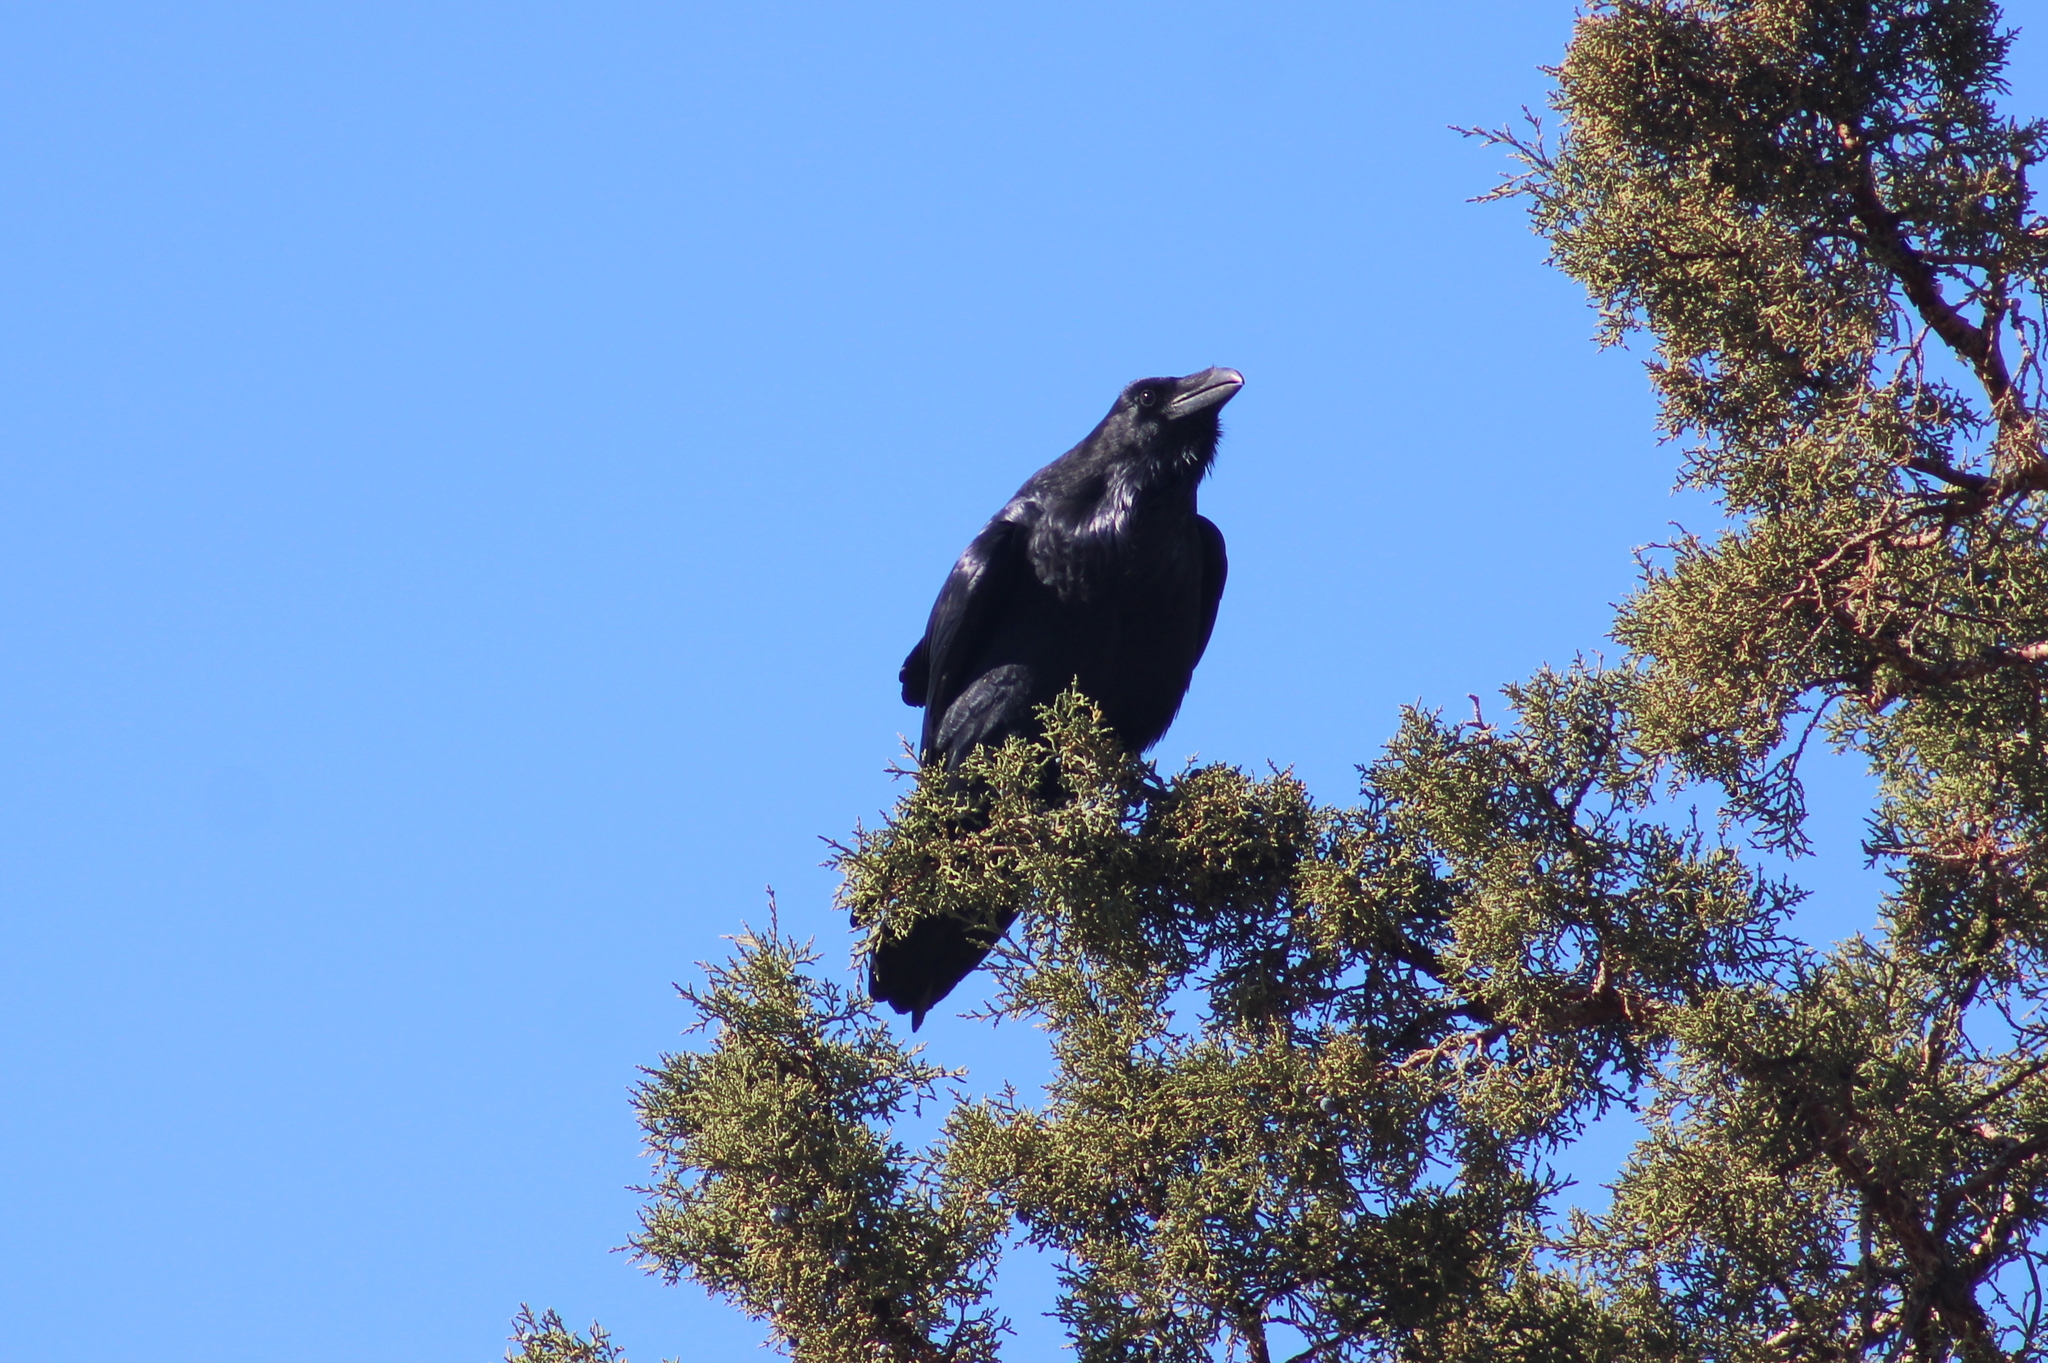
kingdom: Animalia
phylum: Chordata
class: Aves
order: Passeriformes
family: Corvidae
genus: Corvus
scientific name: Corvus corax
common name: Common raven
